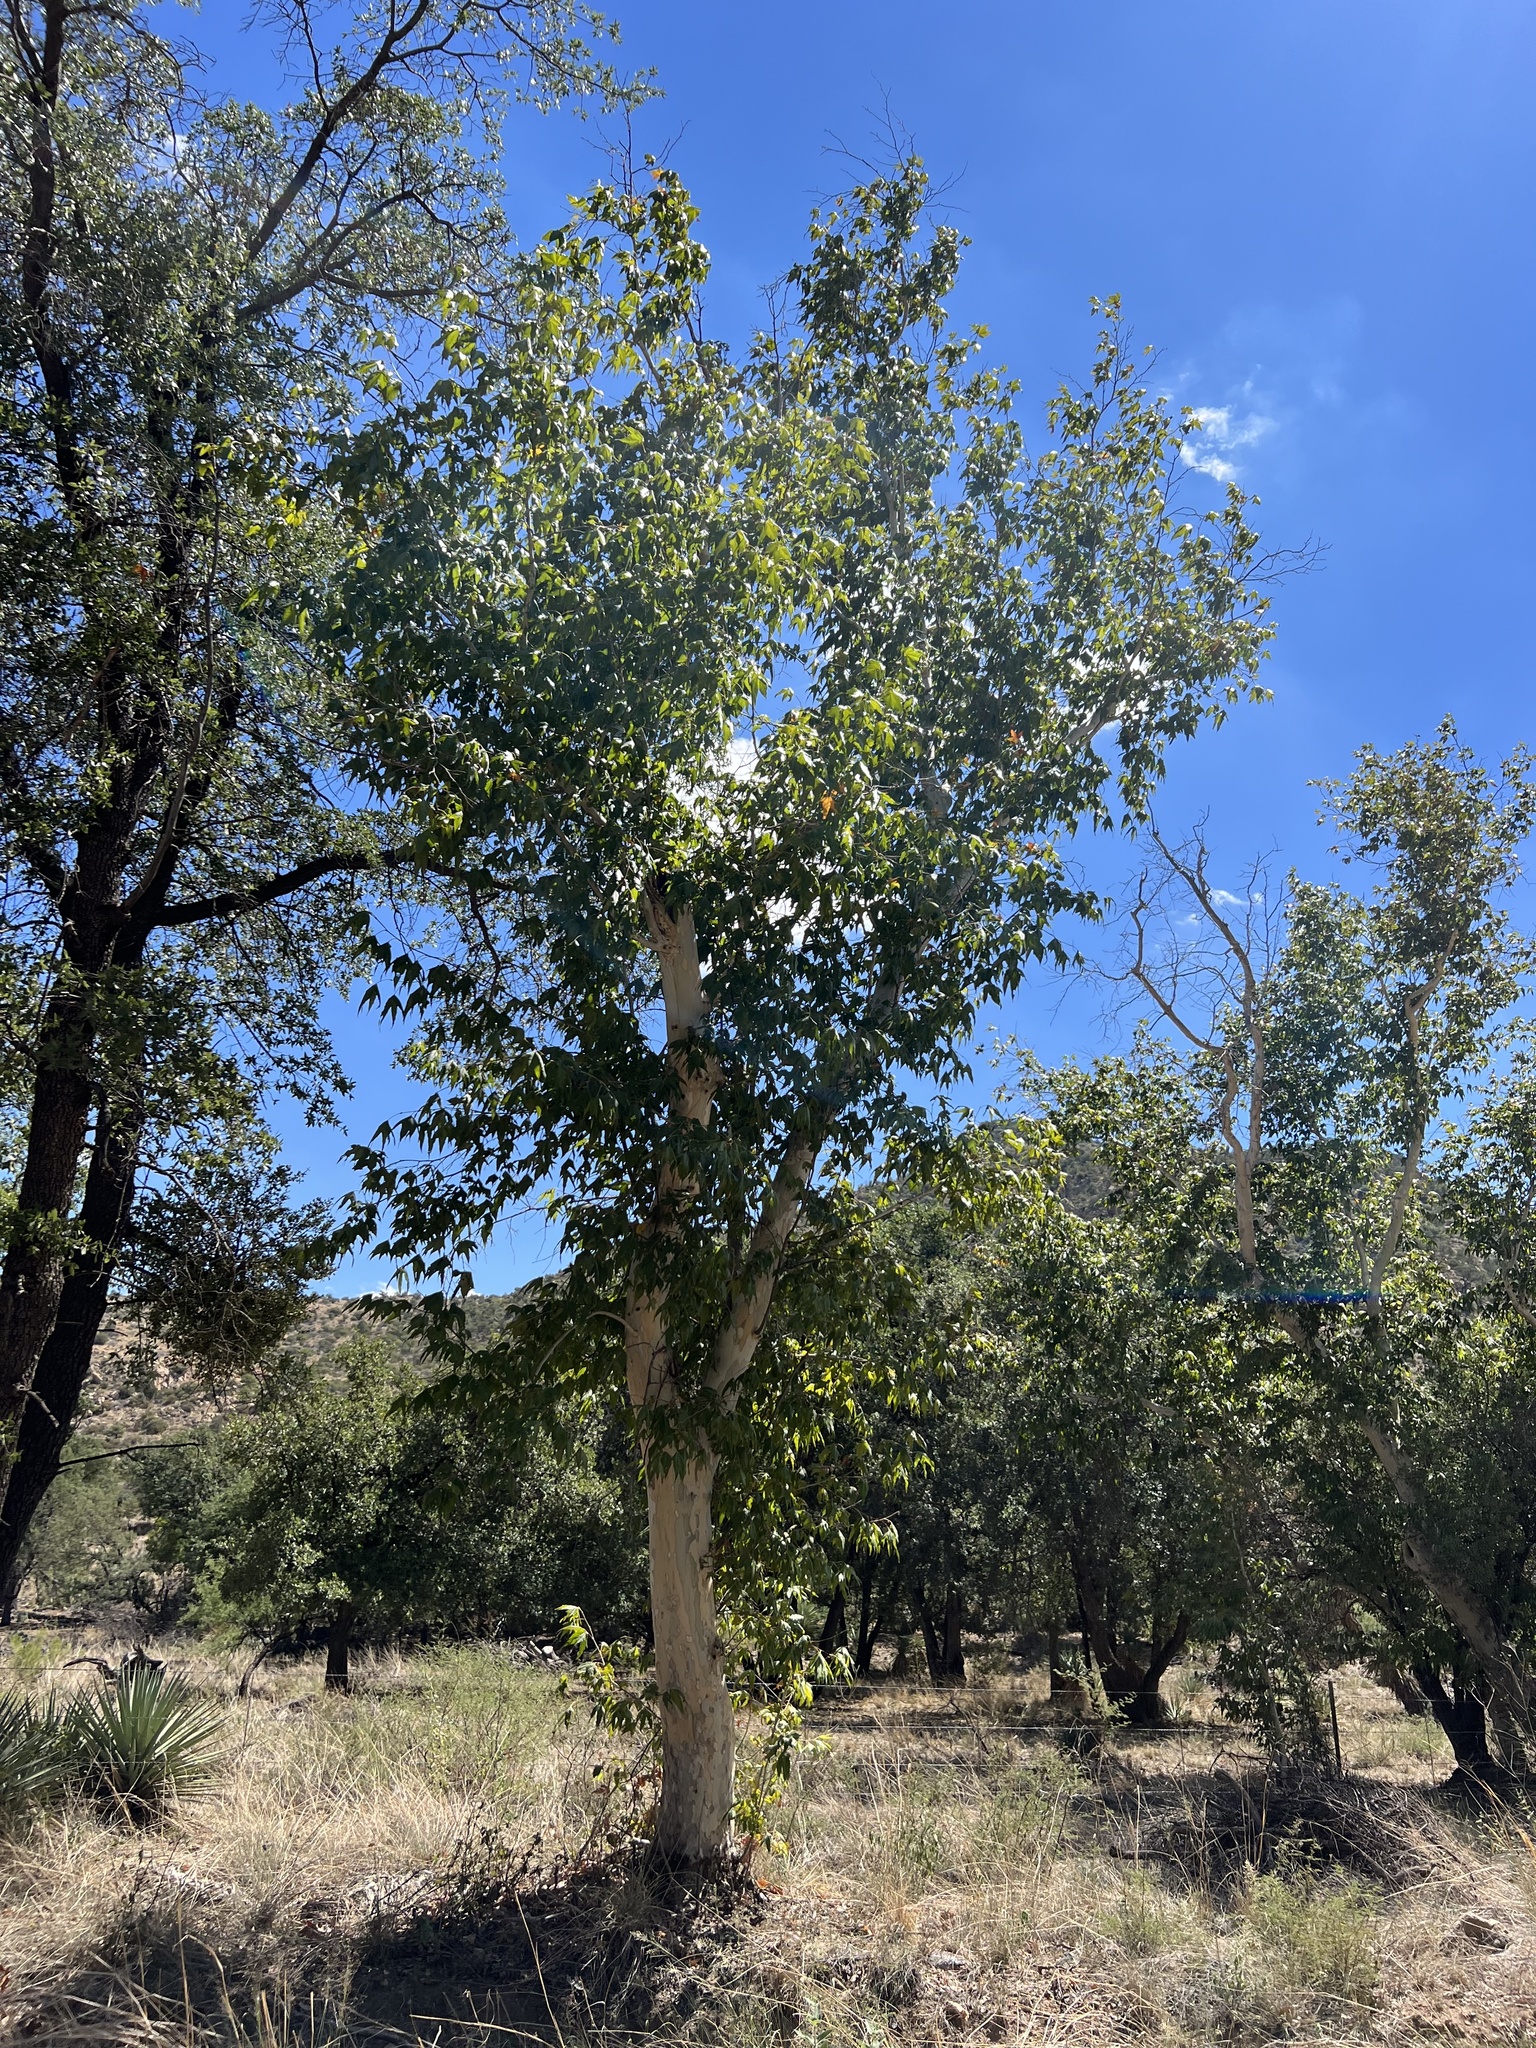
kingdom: Plantae
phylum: Tracheophyta
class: Magnoliopsida
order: Proteales
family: Platanaceae
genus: Platanus
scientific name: Platanus wrightii
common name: Arizona sycamore
